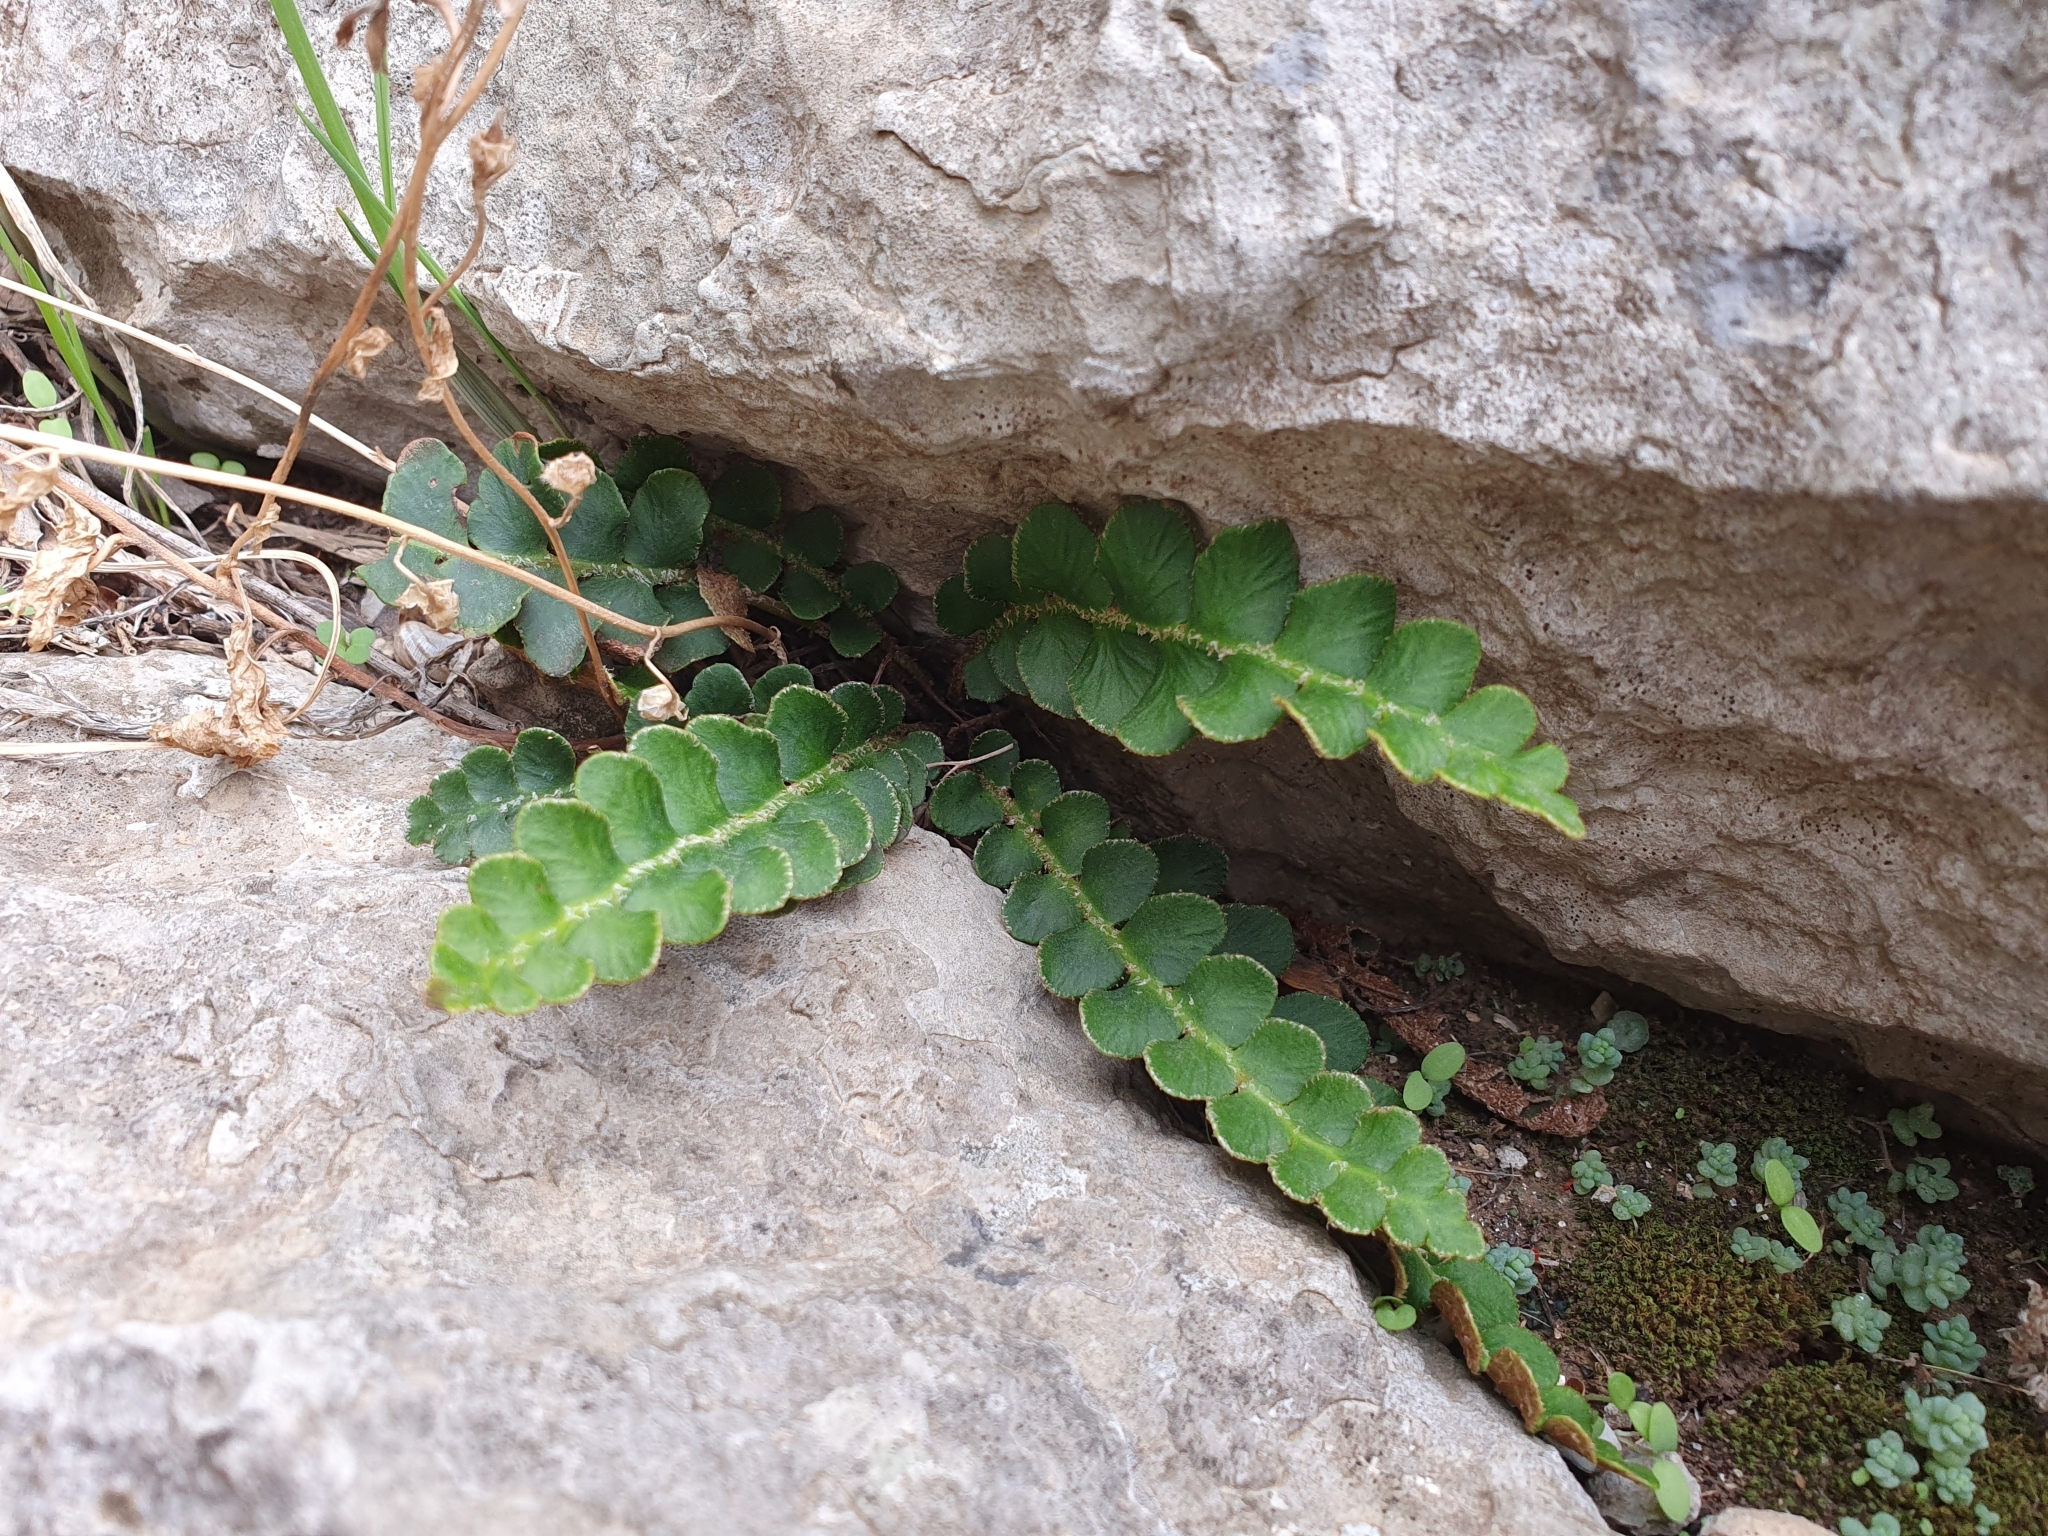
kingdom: Plantae
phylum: Tracheophyta
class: Polypodiopsida
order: Polypodiales
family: Aspleniaceae
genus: Asplenium
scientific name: Asplenium ceterach
